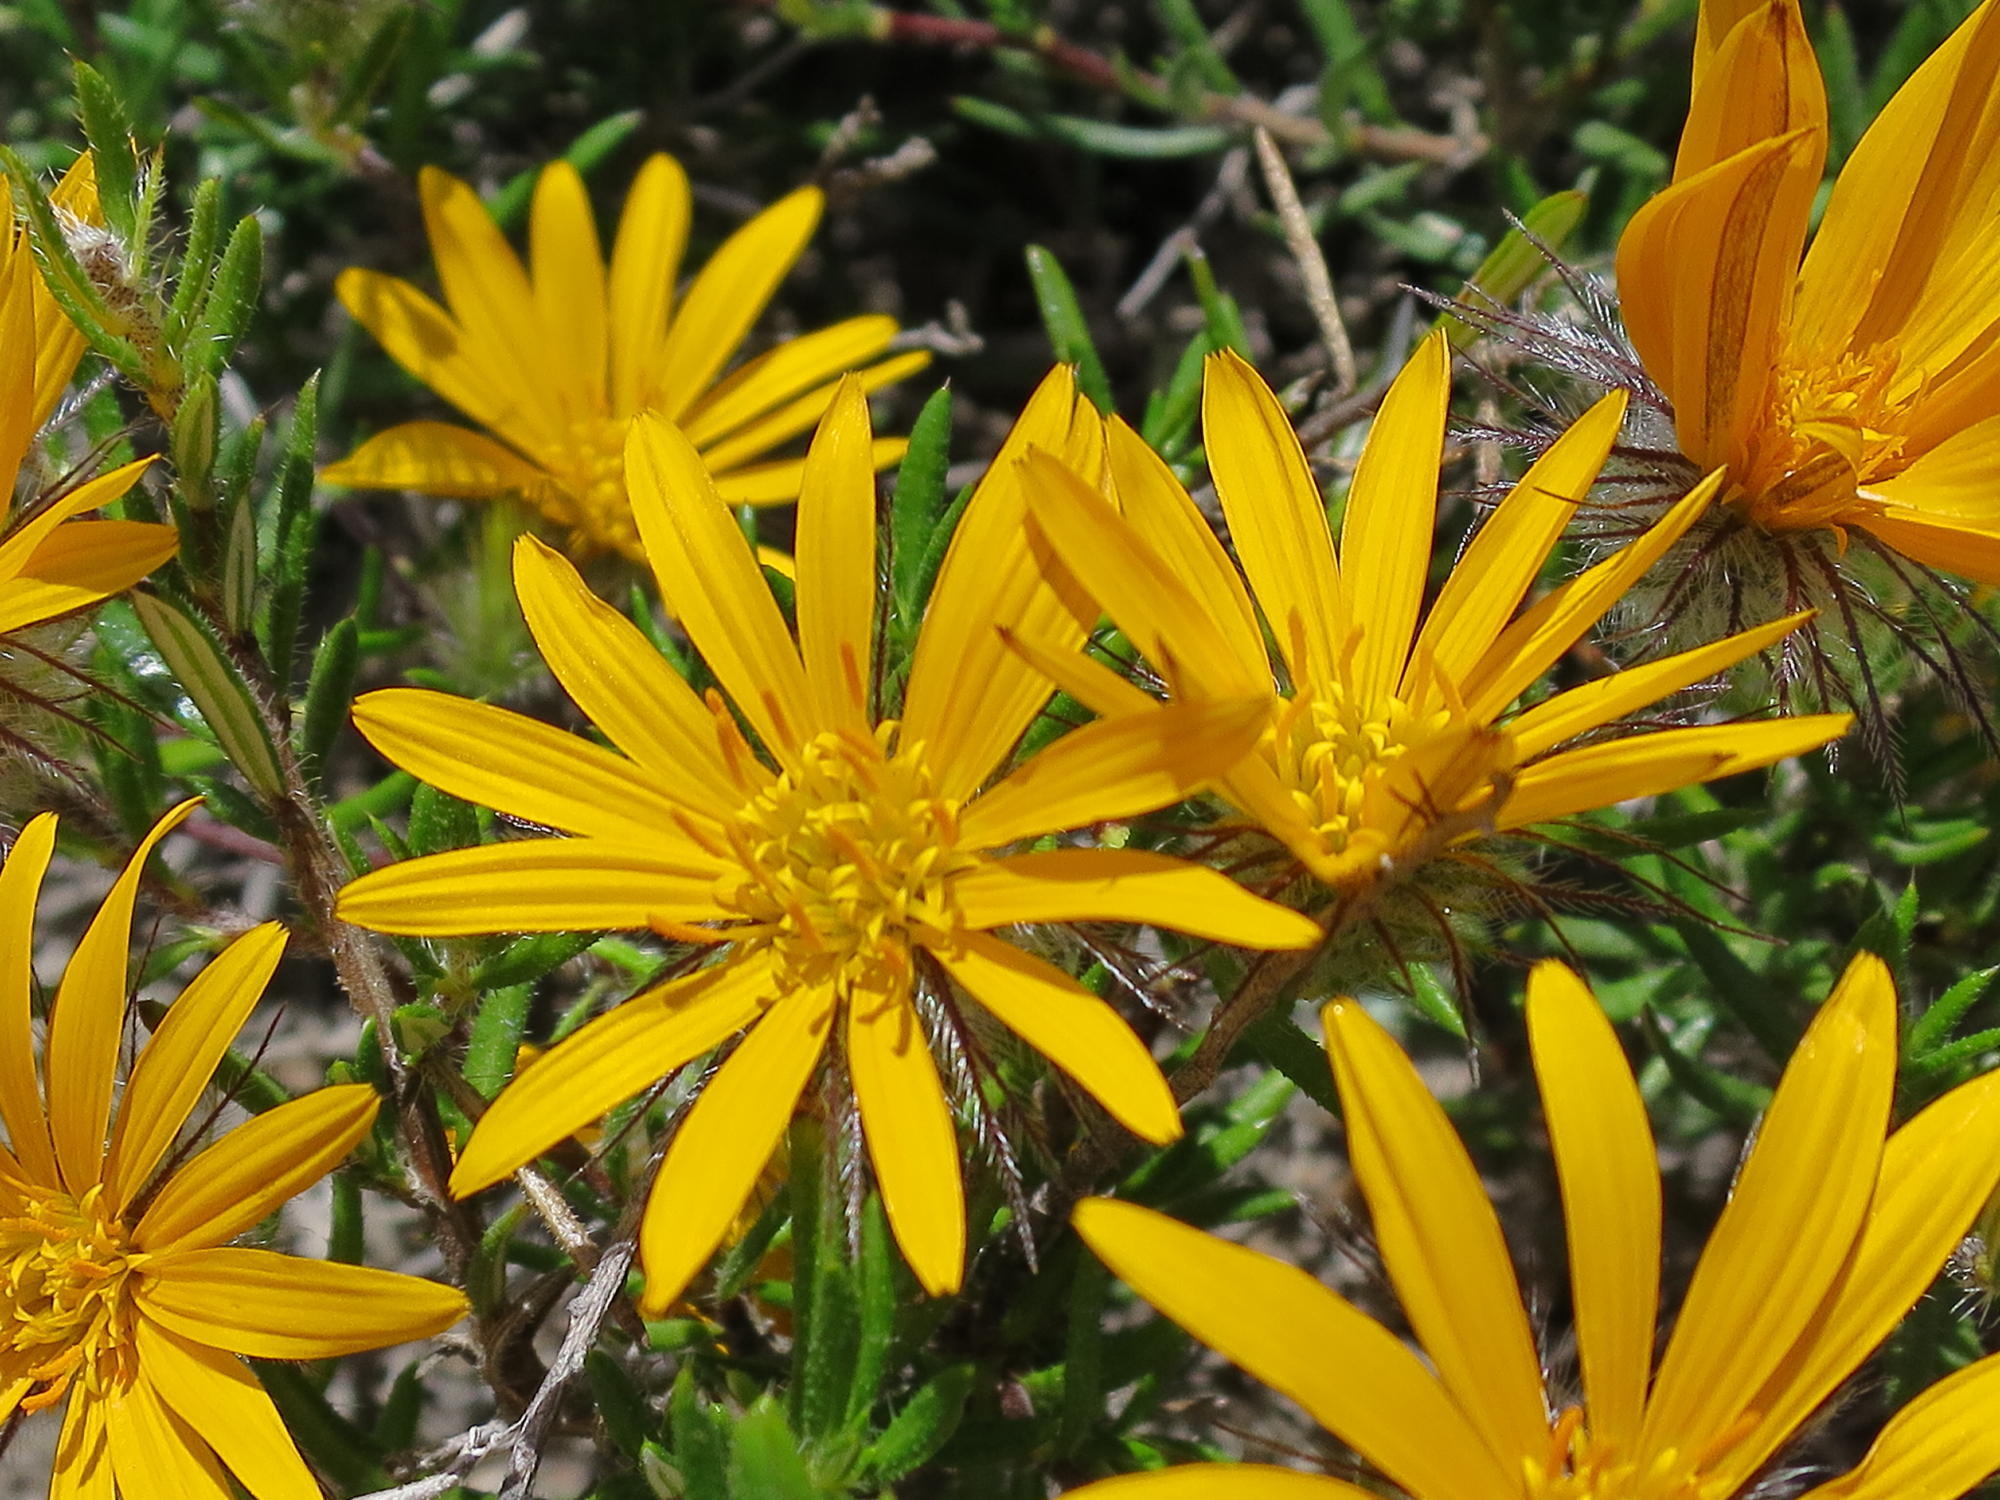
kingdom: Plantae
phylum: Tracheophyta
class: Magnoliopsida
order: Asterales
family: Asteraceae
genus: Hirpicium
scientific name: Hirpicium integrifolium
